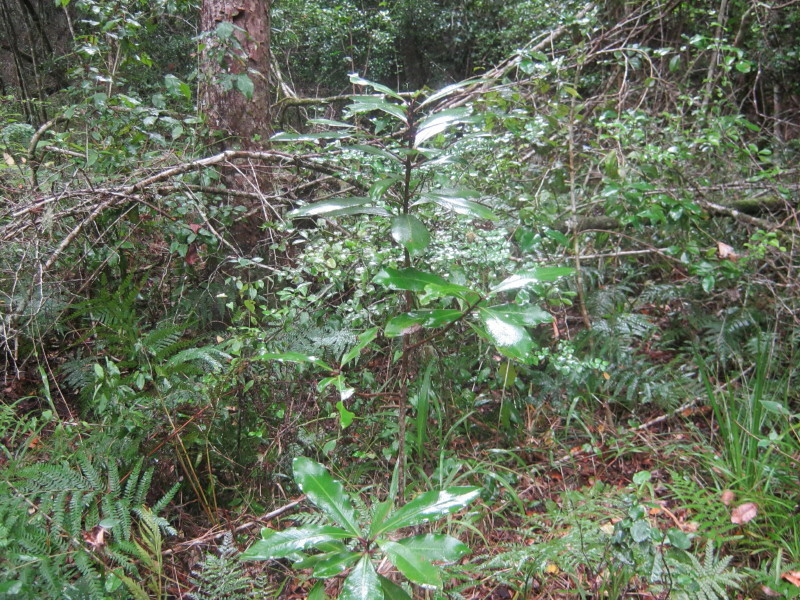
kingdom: Plantae
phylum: Tracheophyta
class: Magnoliopsida
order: Ericales
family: Primulaceae
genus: Myrsine
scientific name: Myrsine melanophloeos
